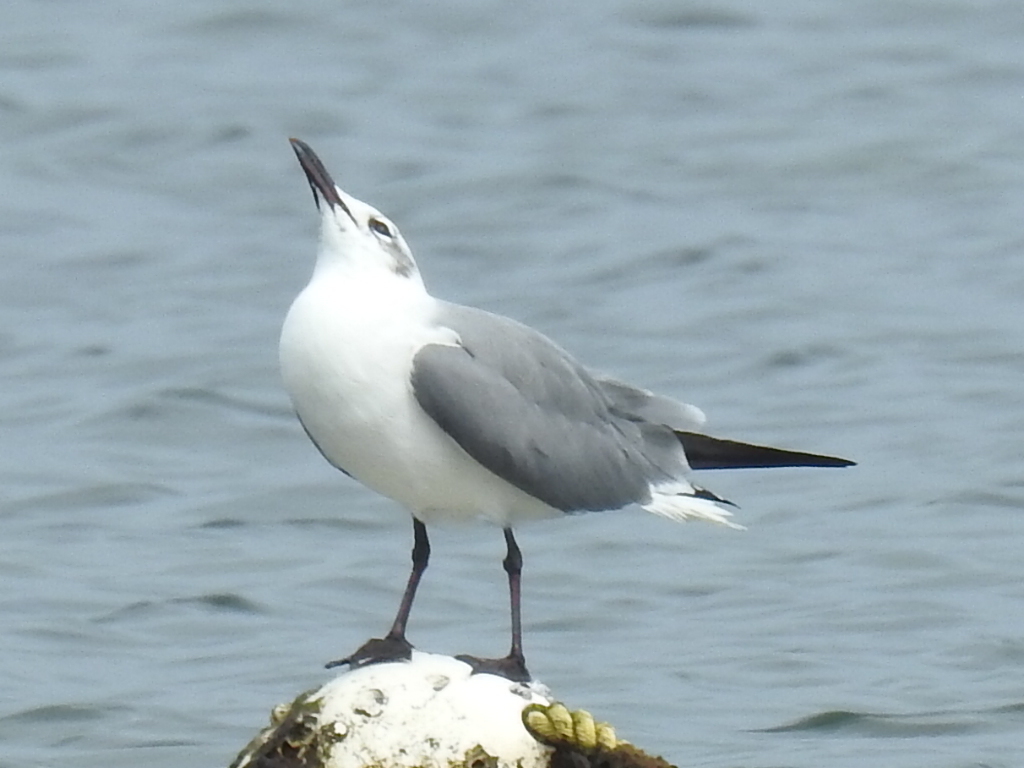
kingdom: Animalia
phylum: Chordata
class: Aves
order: Charadriiformes
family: Laridae
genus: Leucophaeus
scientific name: Leucophaeus atricilla
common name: Laughing gull
